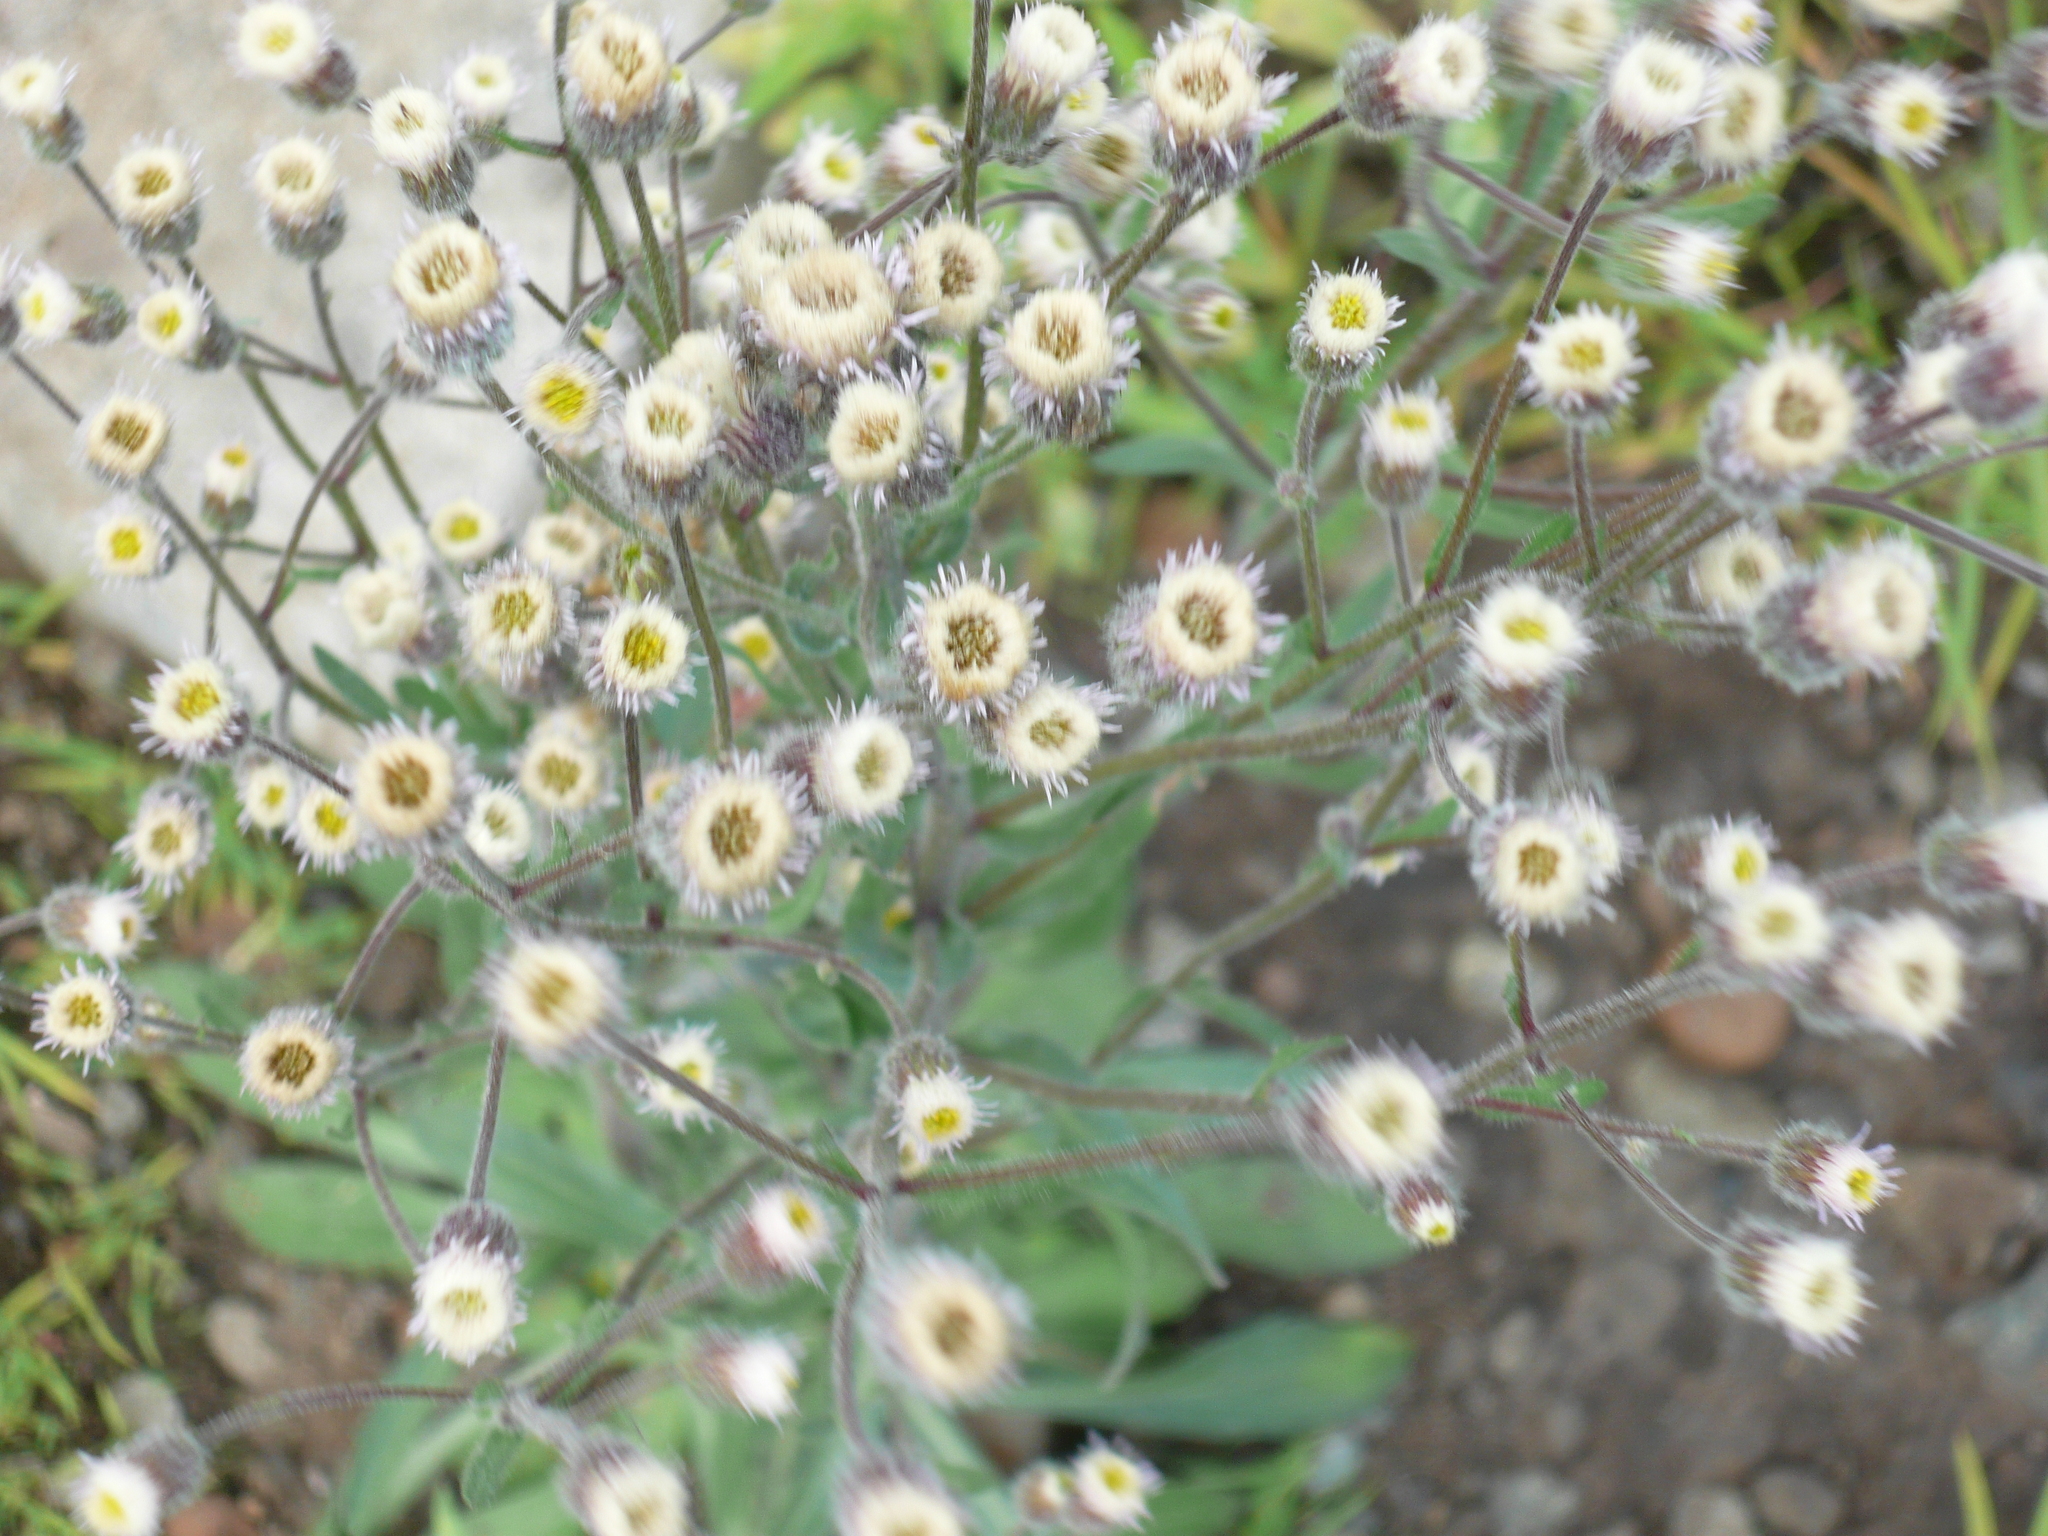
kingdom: Plantae
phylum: Tracheophyta
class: Magnoliopsida
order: Asterales
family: Asteraceae
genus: Erigeron
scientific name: Erigeron acris
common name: Blue fleabane
